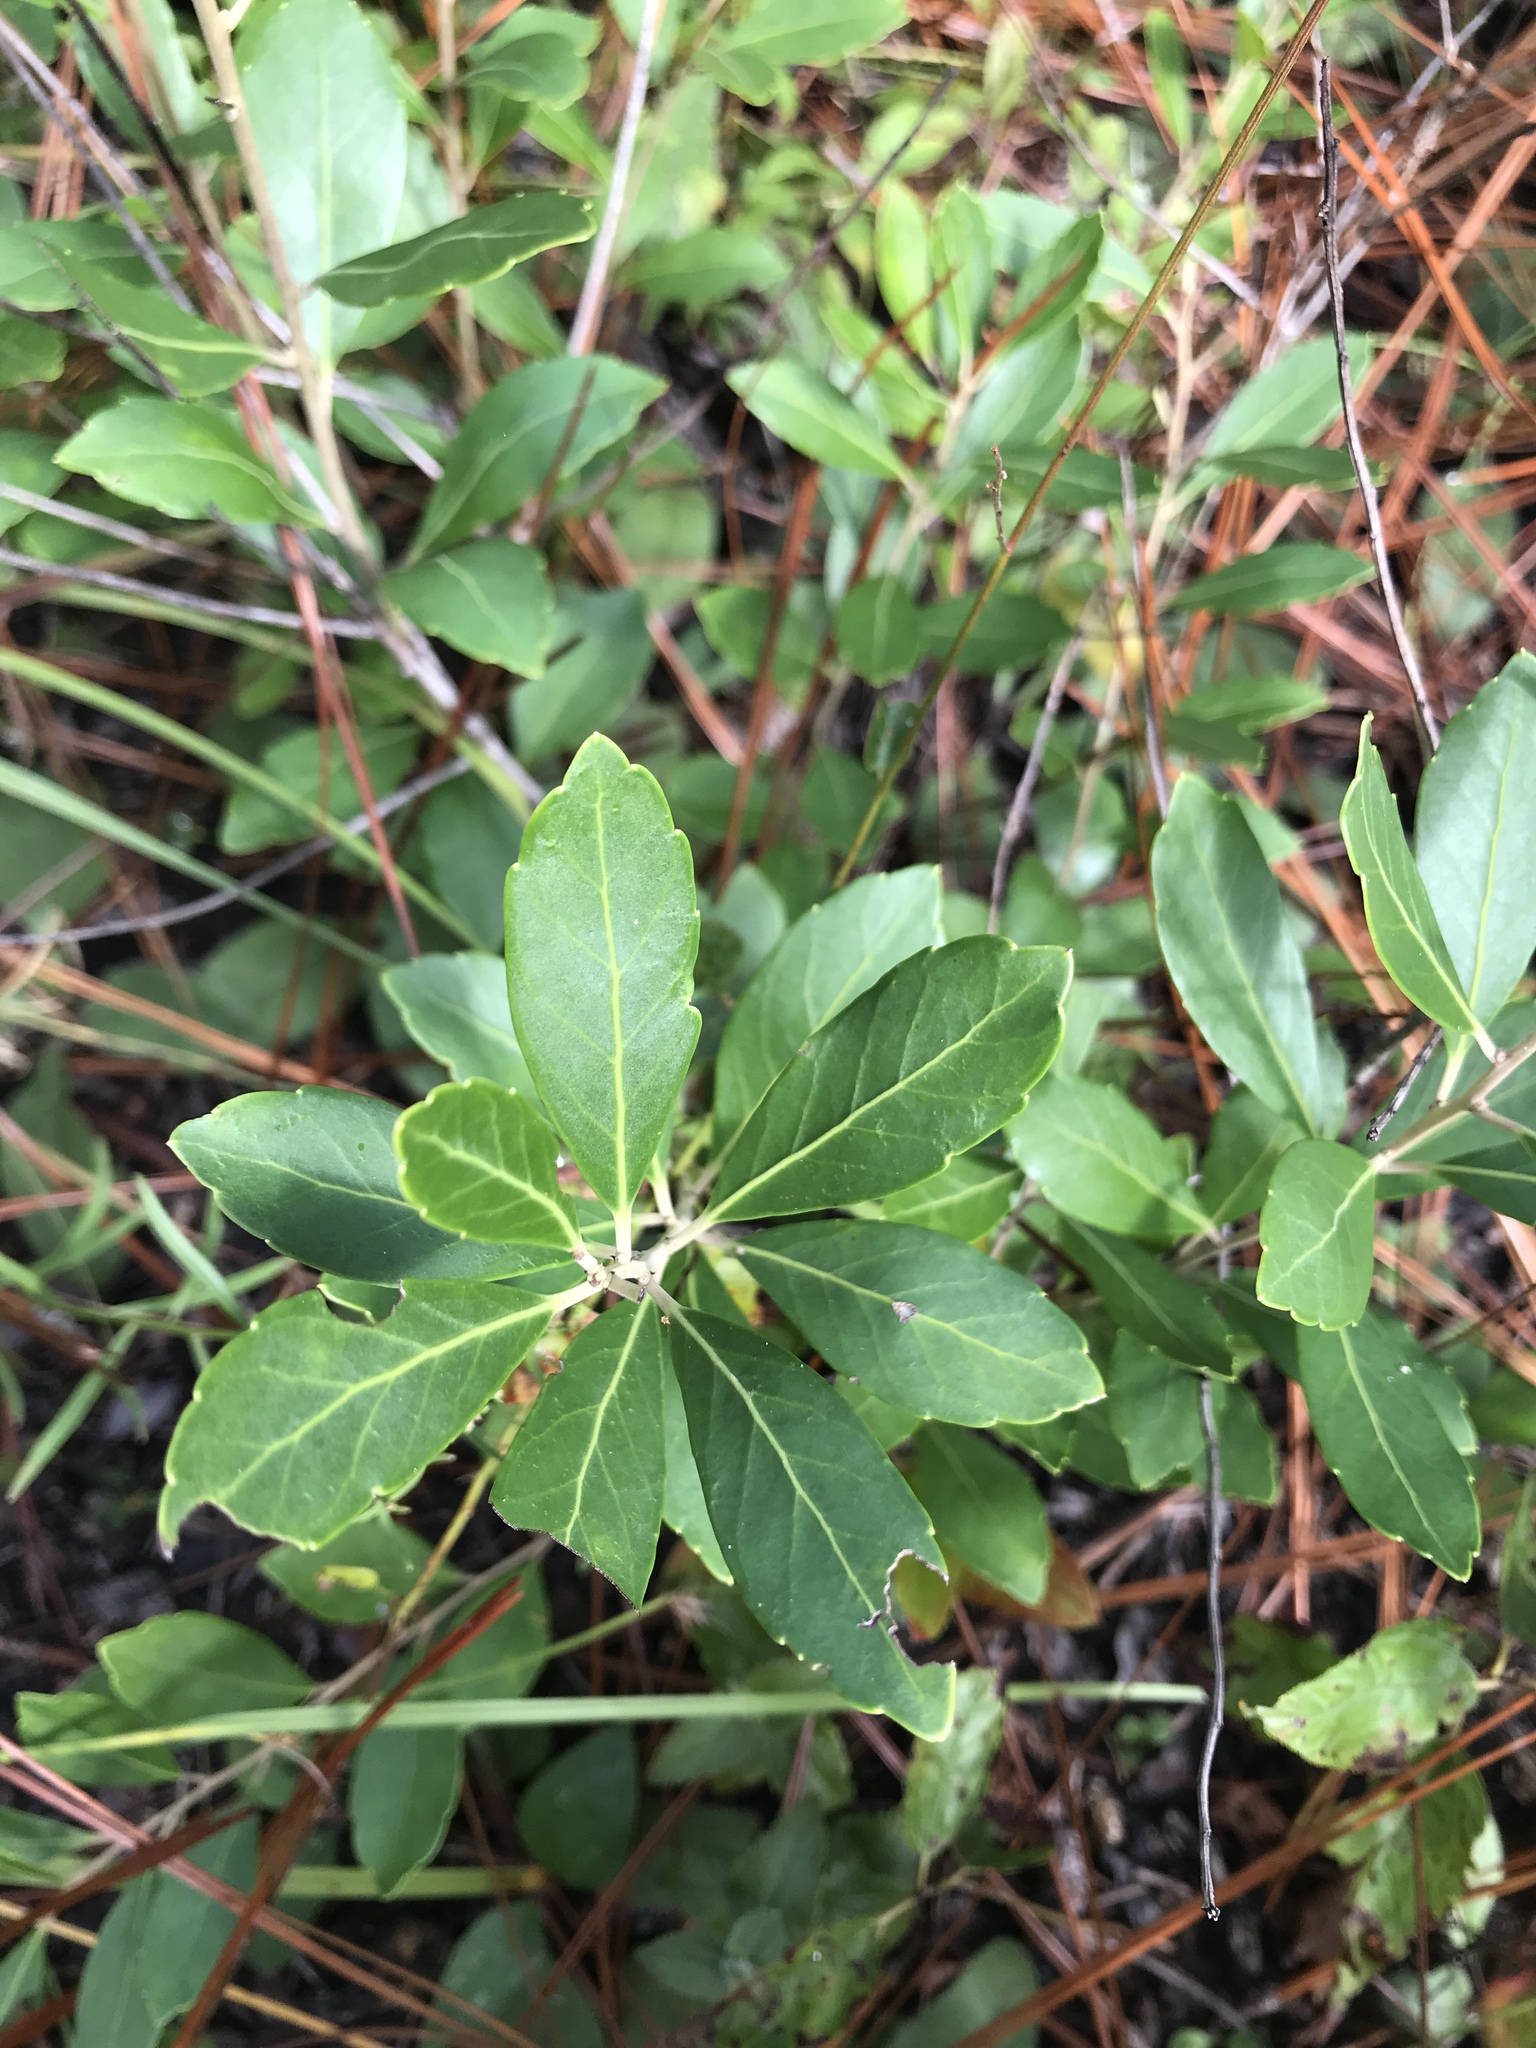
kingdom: Plantae
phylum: Tracheophyta
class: Magnoliopsida
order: Aquifoliales
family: Aquifoliaceae
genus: Ilex
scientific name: Ilex glabra
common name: Bitter gallberry
